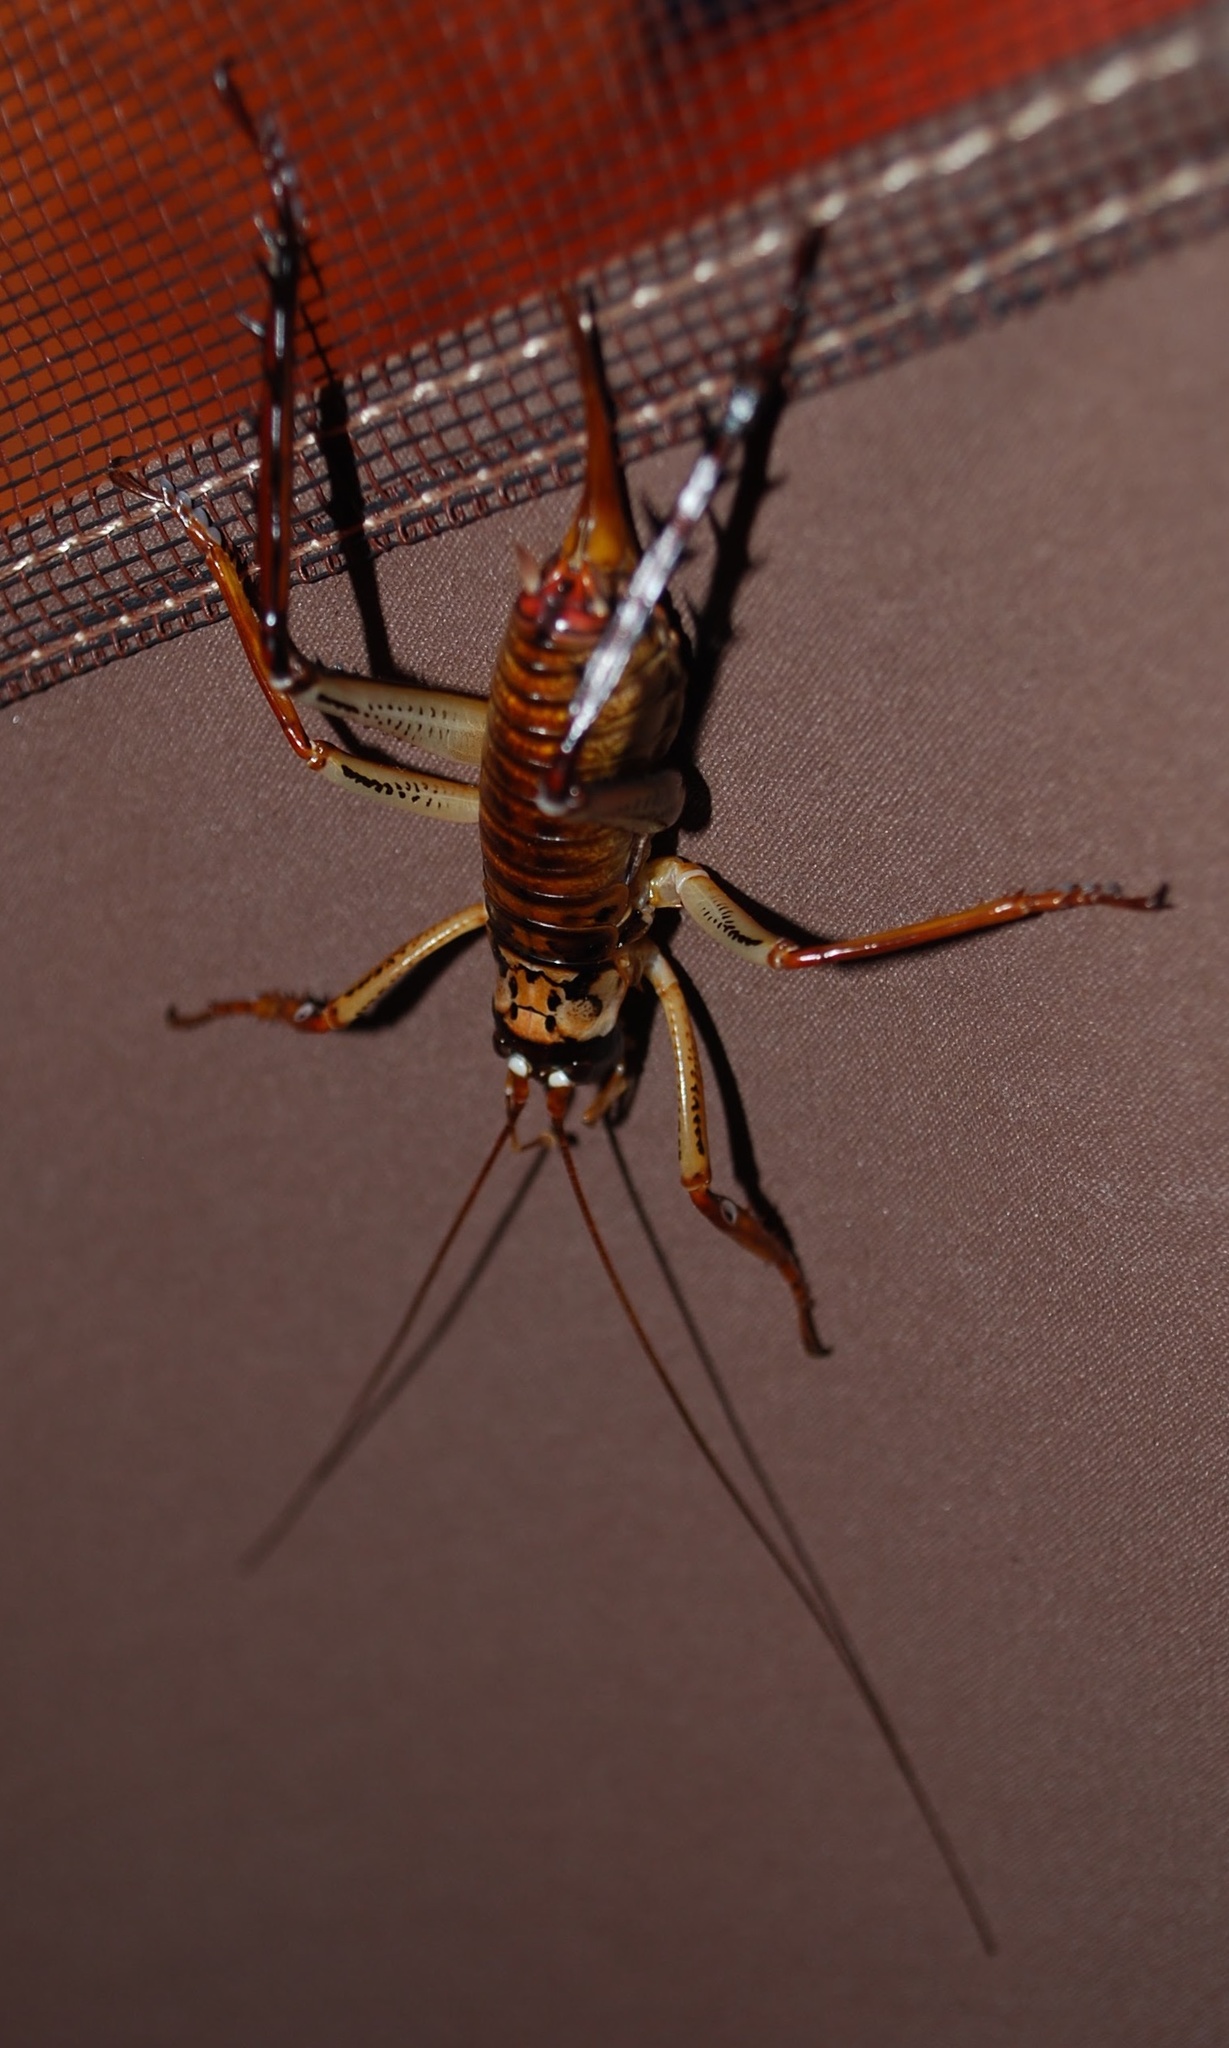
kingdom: Animalia
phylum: Arthropoda
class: Insecta
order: Orthoptera
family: Anostostomatidae
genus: Hemideina
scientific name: Hemideina thoracica
